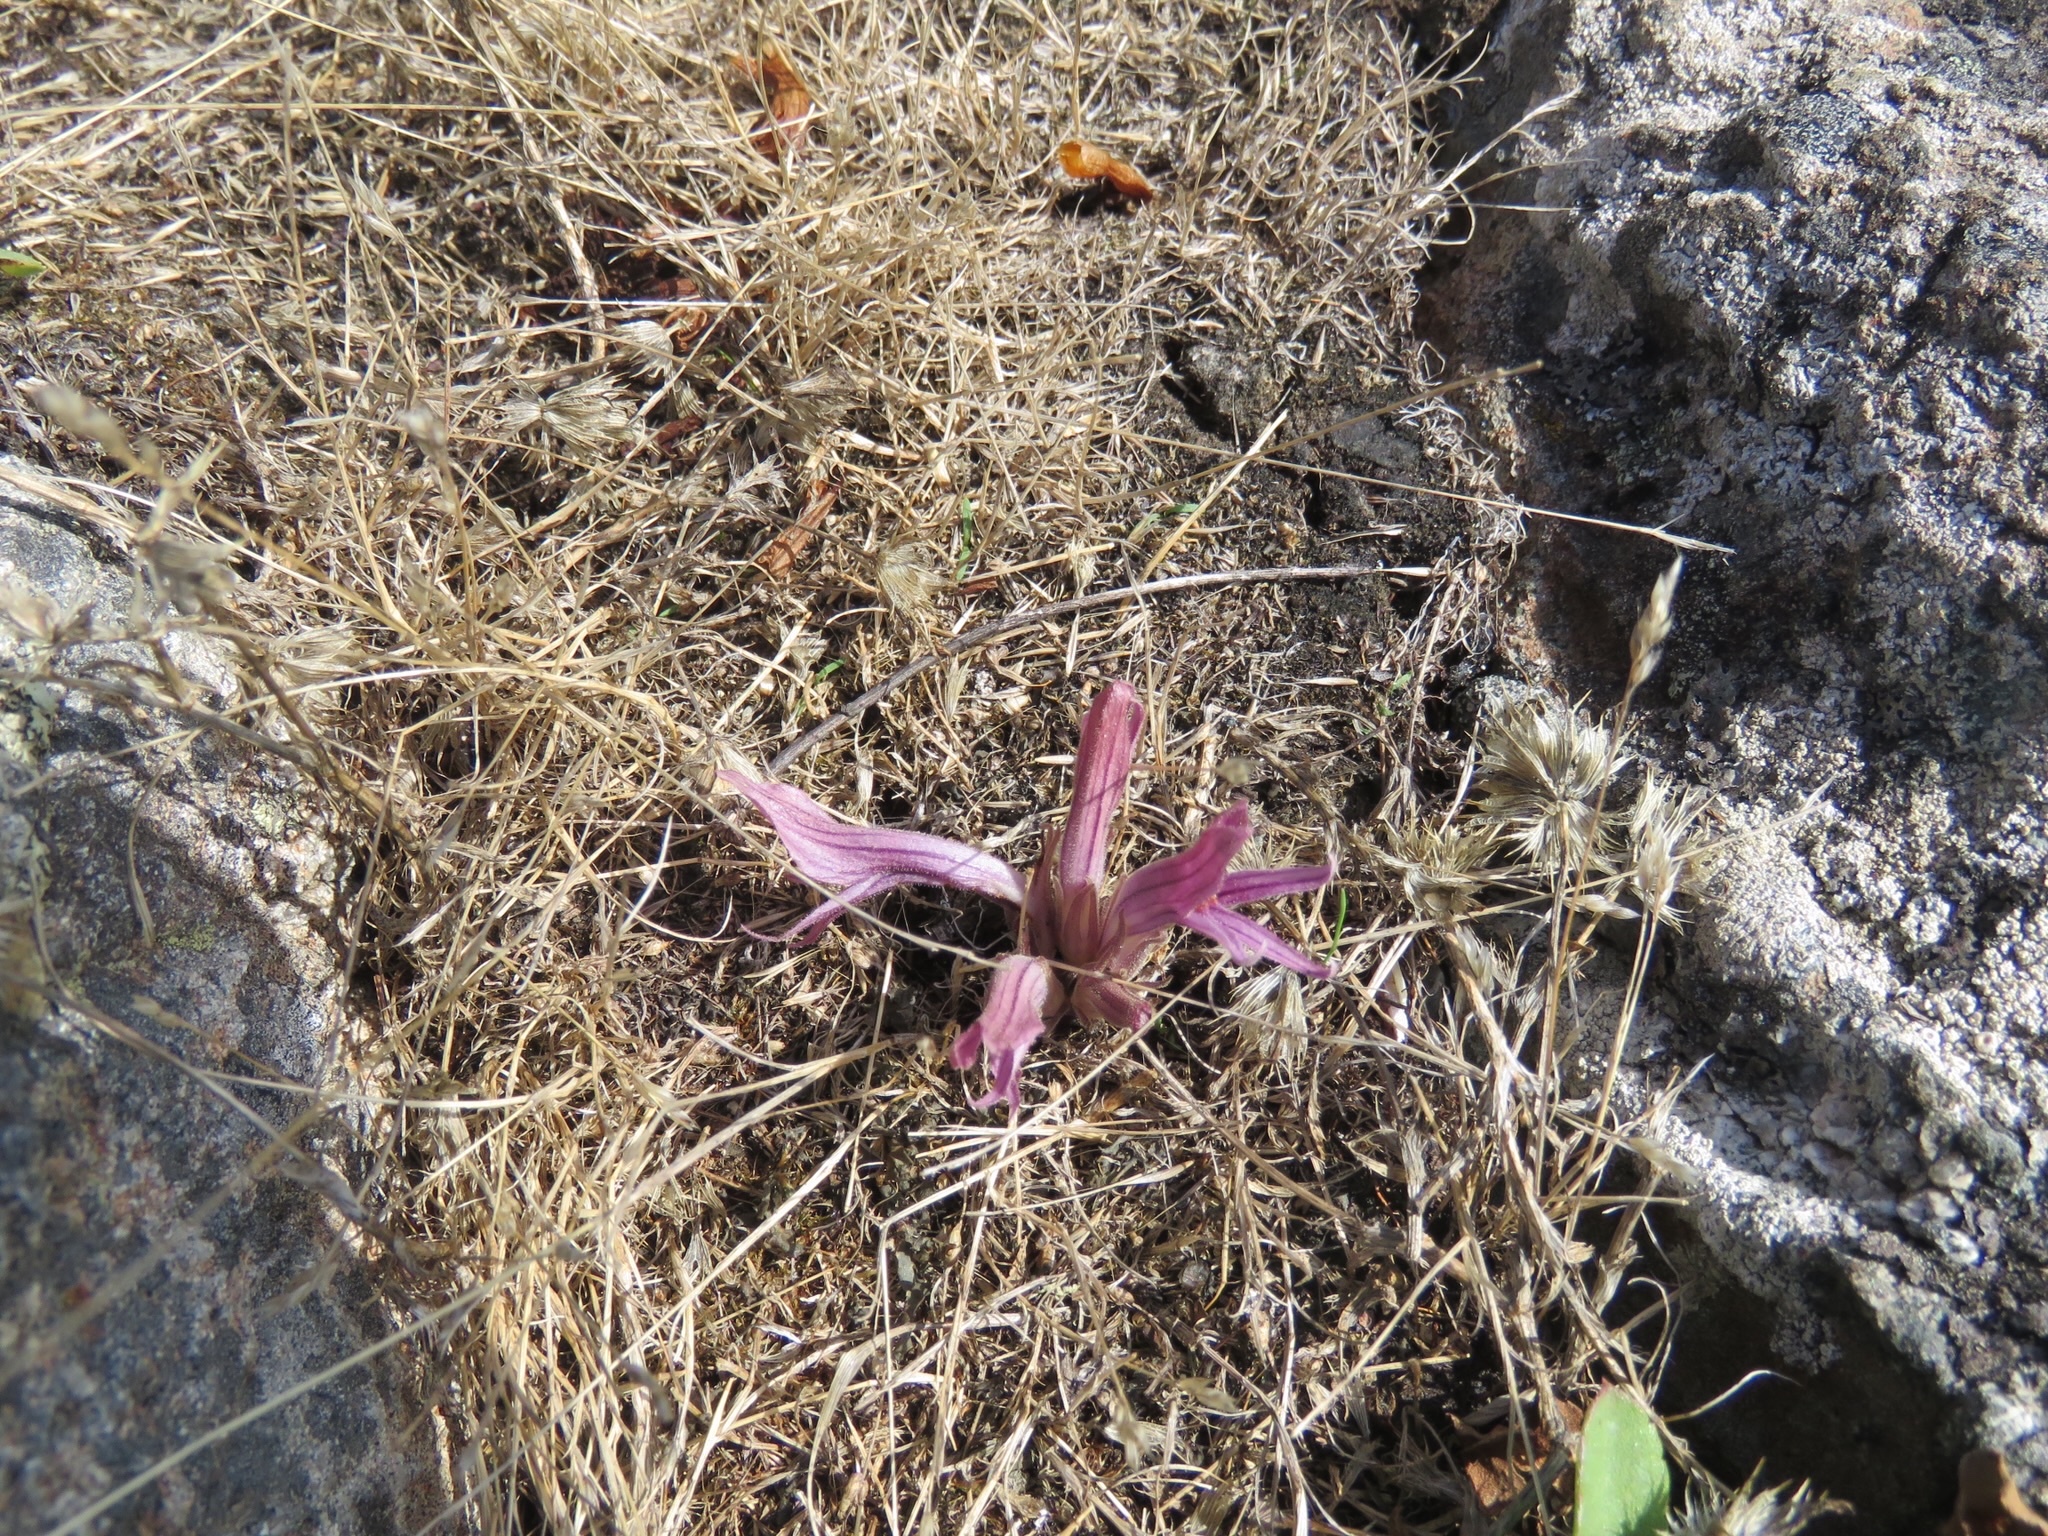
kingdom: Plantae
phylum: Tracheophyta
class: Magnoliopsida
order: Lamiales
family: Orobanchaceae
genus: Aphyllon
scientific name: Aphyllon californicum
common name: California broomrape
